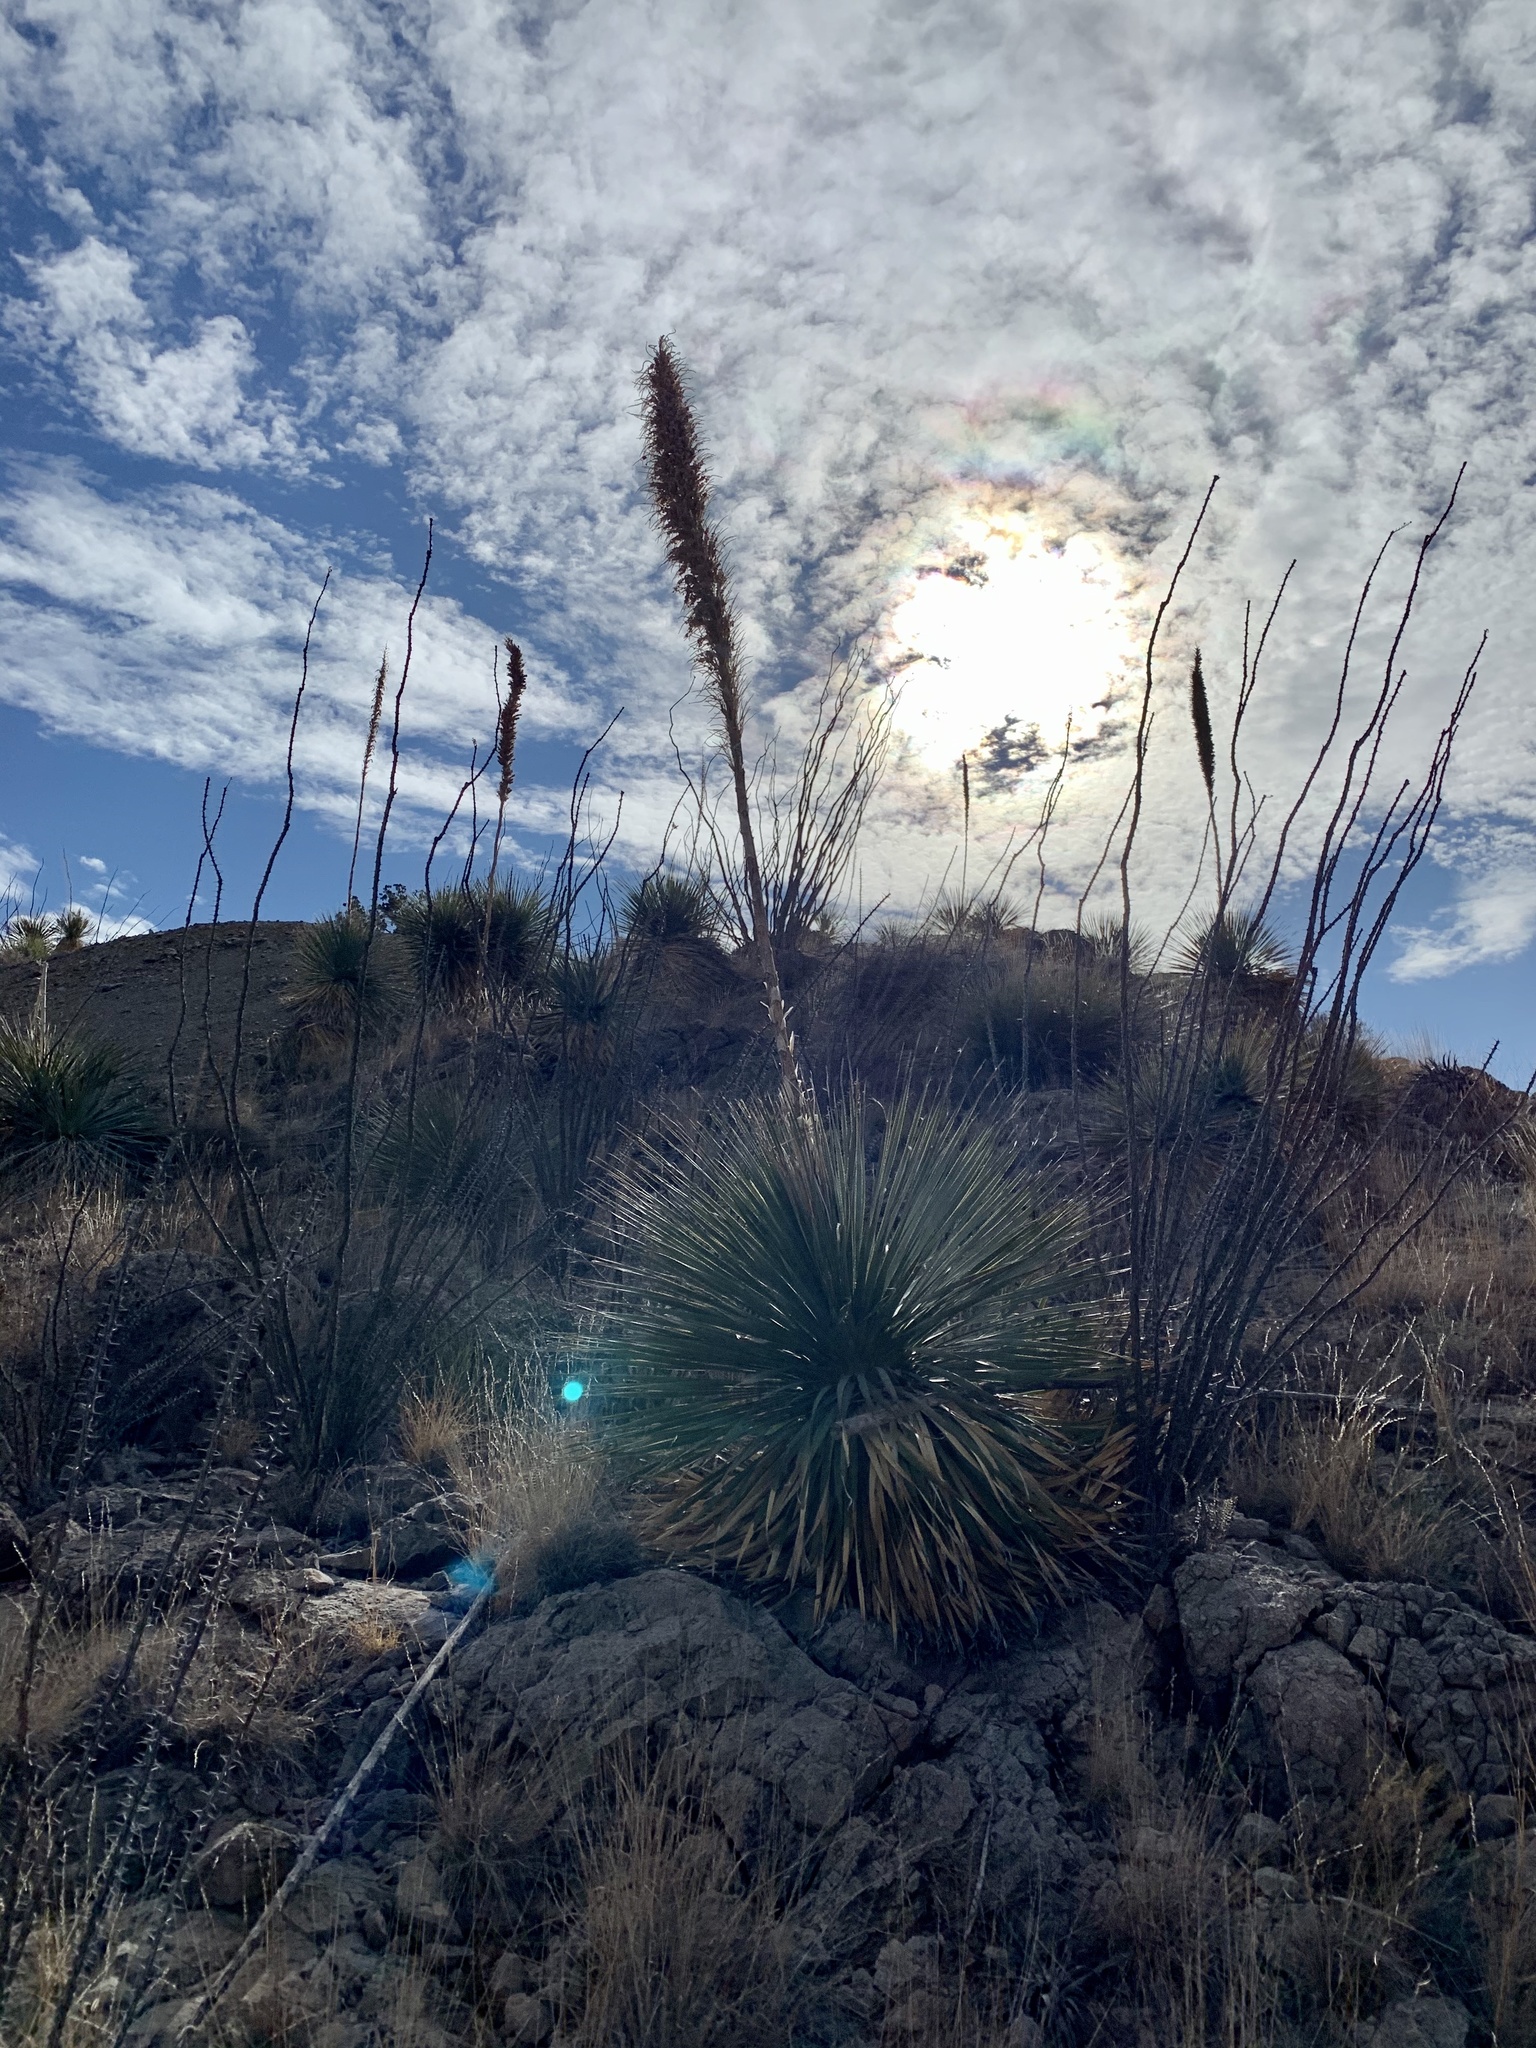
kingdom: Plantae
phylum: Tracheophyta
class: Liliopsida
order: Asparagales
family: Asparagaceae
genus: Dasylirion
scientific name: Dasylirion wheeleri
